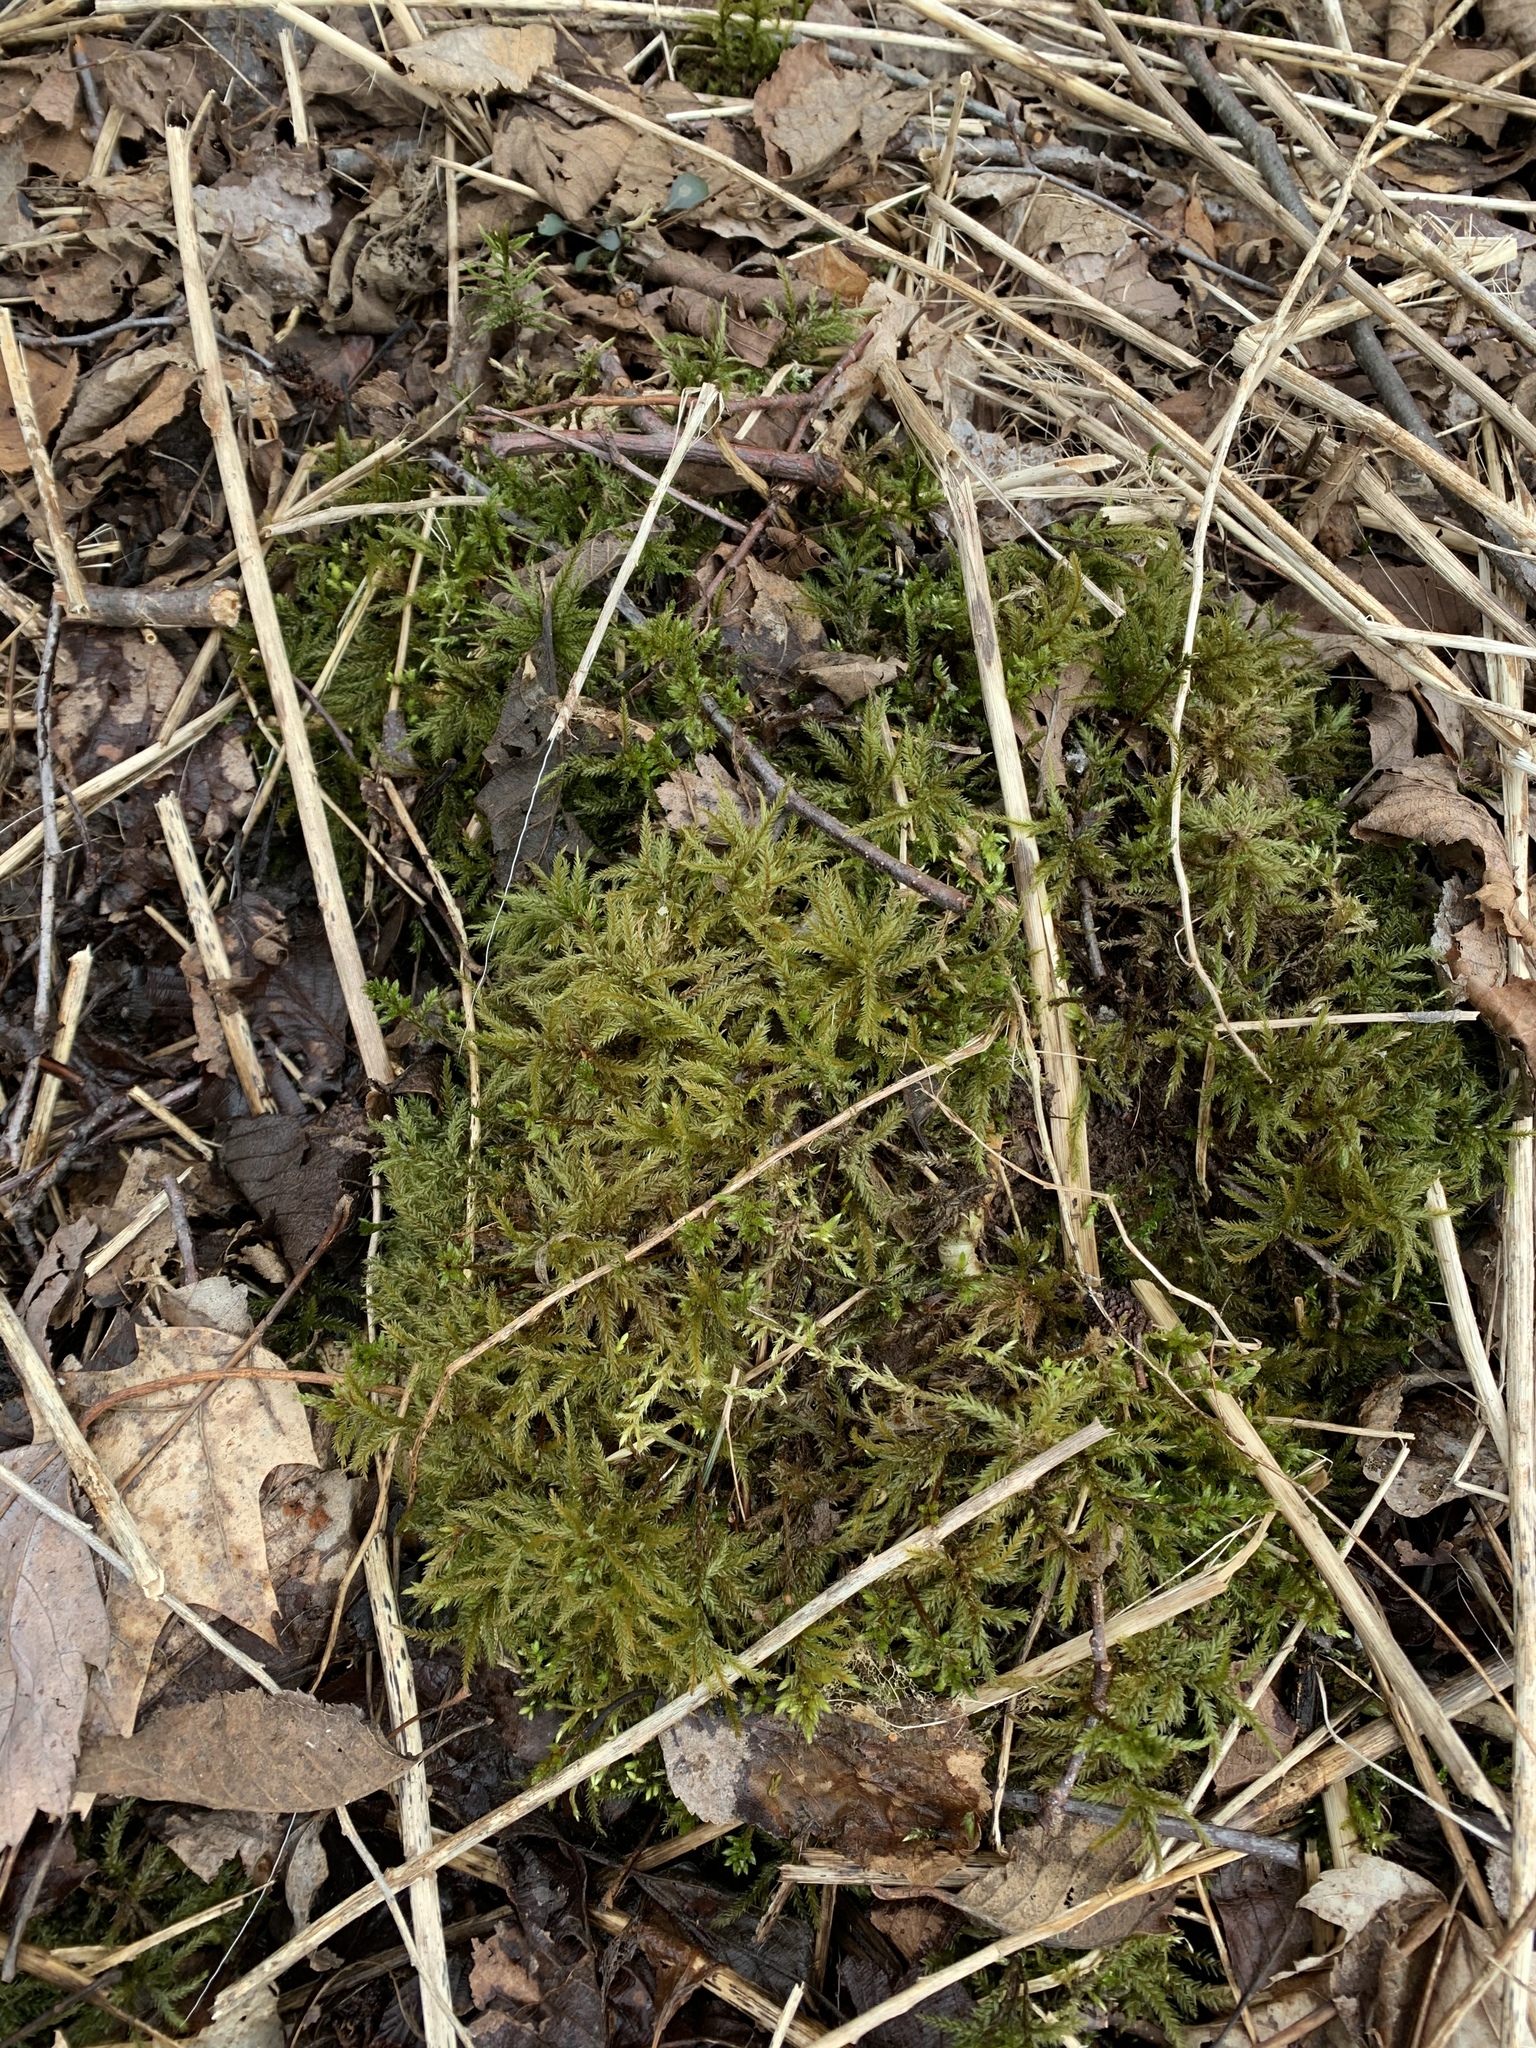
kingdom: Plantae
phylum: Bryophyta
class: Bryopsida
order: Hypnales
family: Climaciaceae
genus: Climacium
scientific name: Climacium
